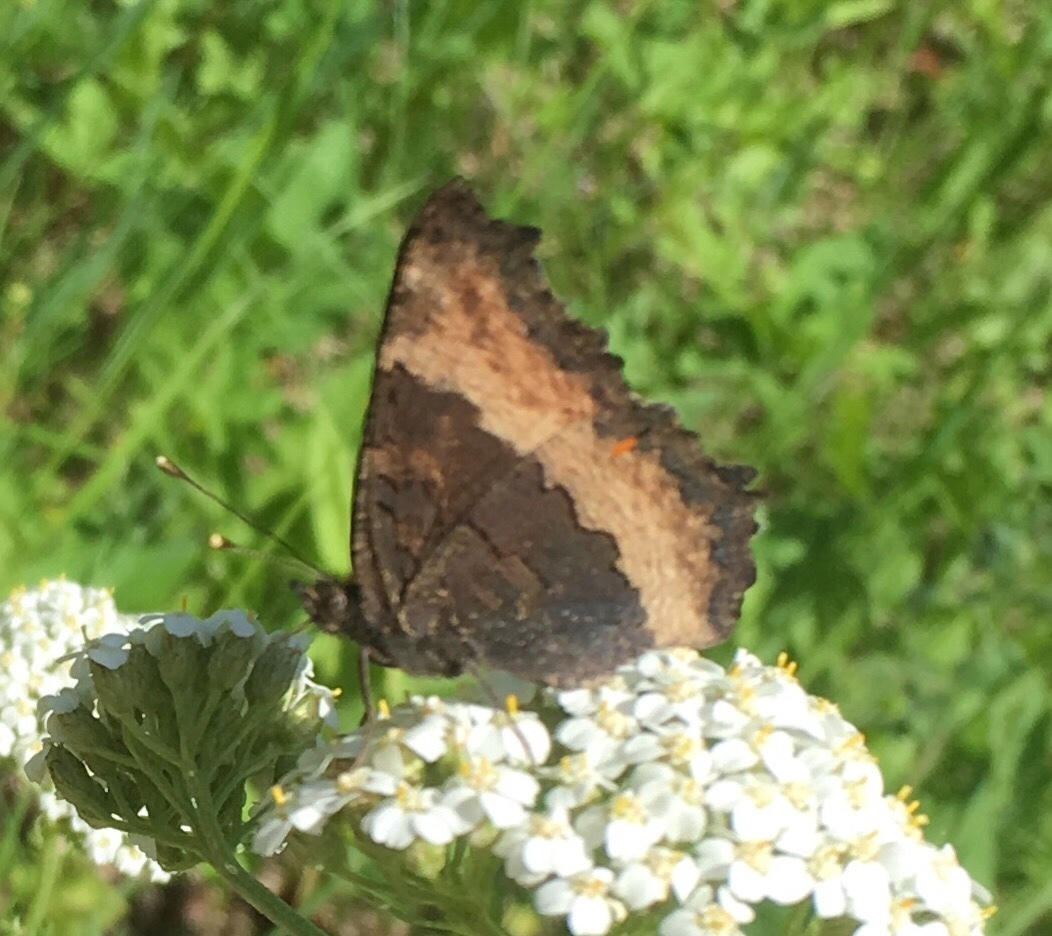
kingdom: Animalia
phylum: Arthropoda
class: Insecta
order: Lepidoptera
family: Nymphalidae
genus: Aglais
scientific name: Aglais milberti
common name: Milbert's tortoiseshell
